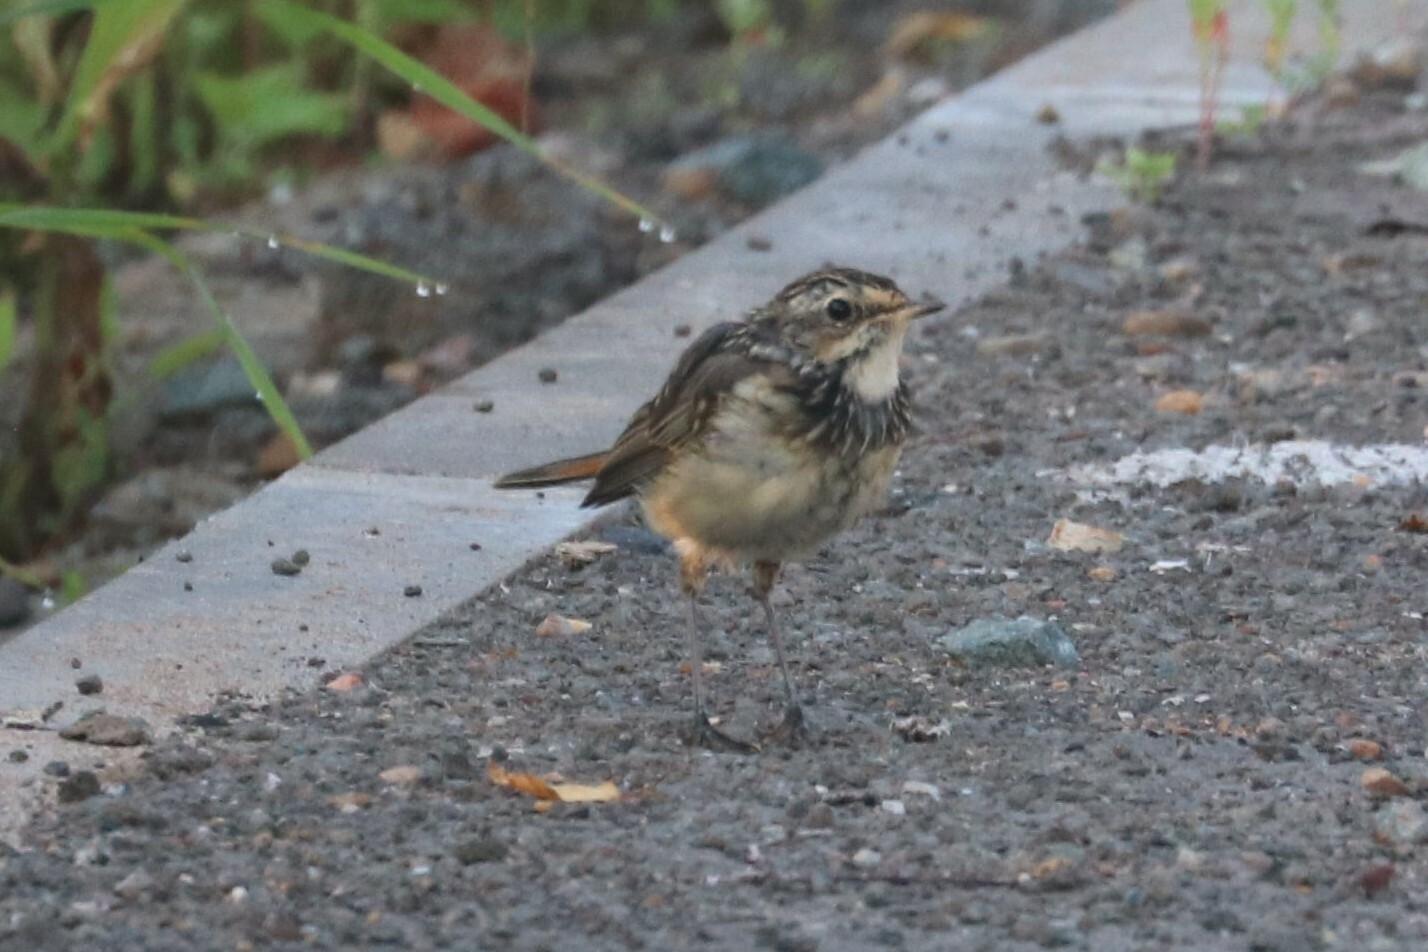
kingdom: Animalia
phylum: Chordata
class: Aves
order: Passeriformes
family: Muscicapidae
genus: Luscinia
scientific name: Luscinia svecica
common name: Bluethroat
